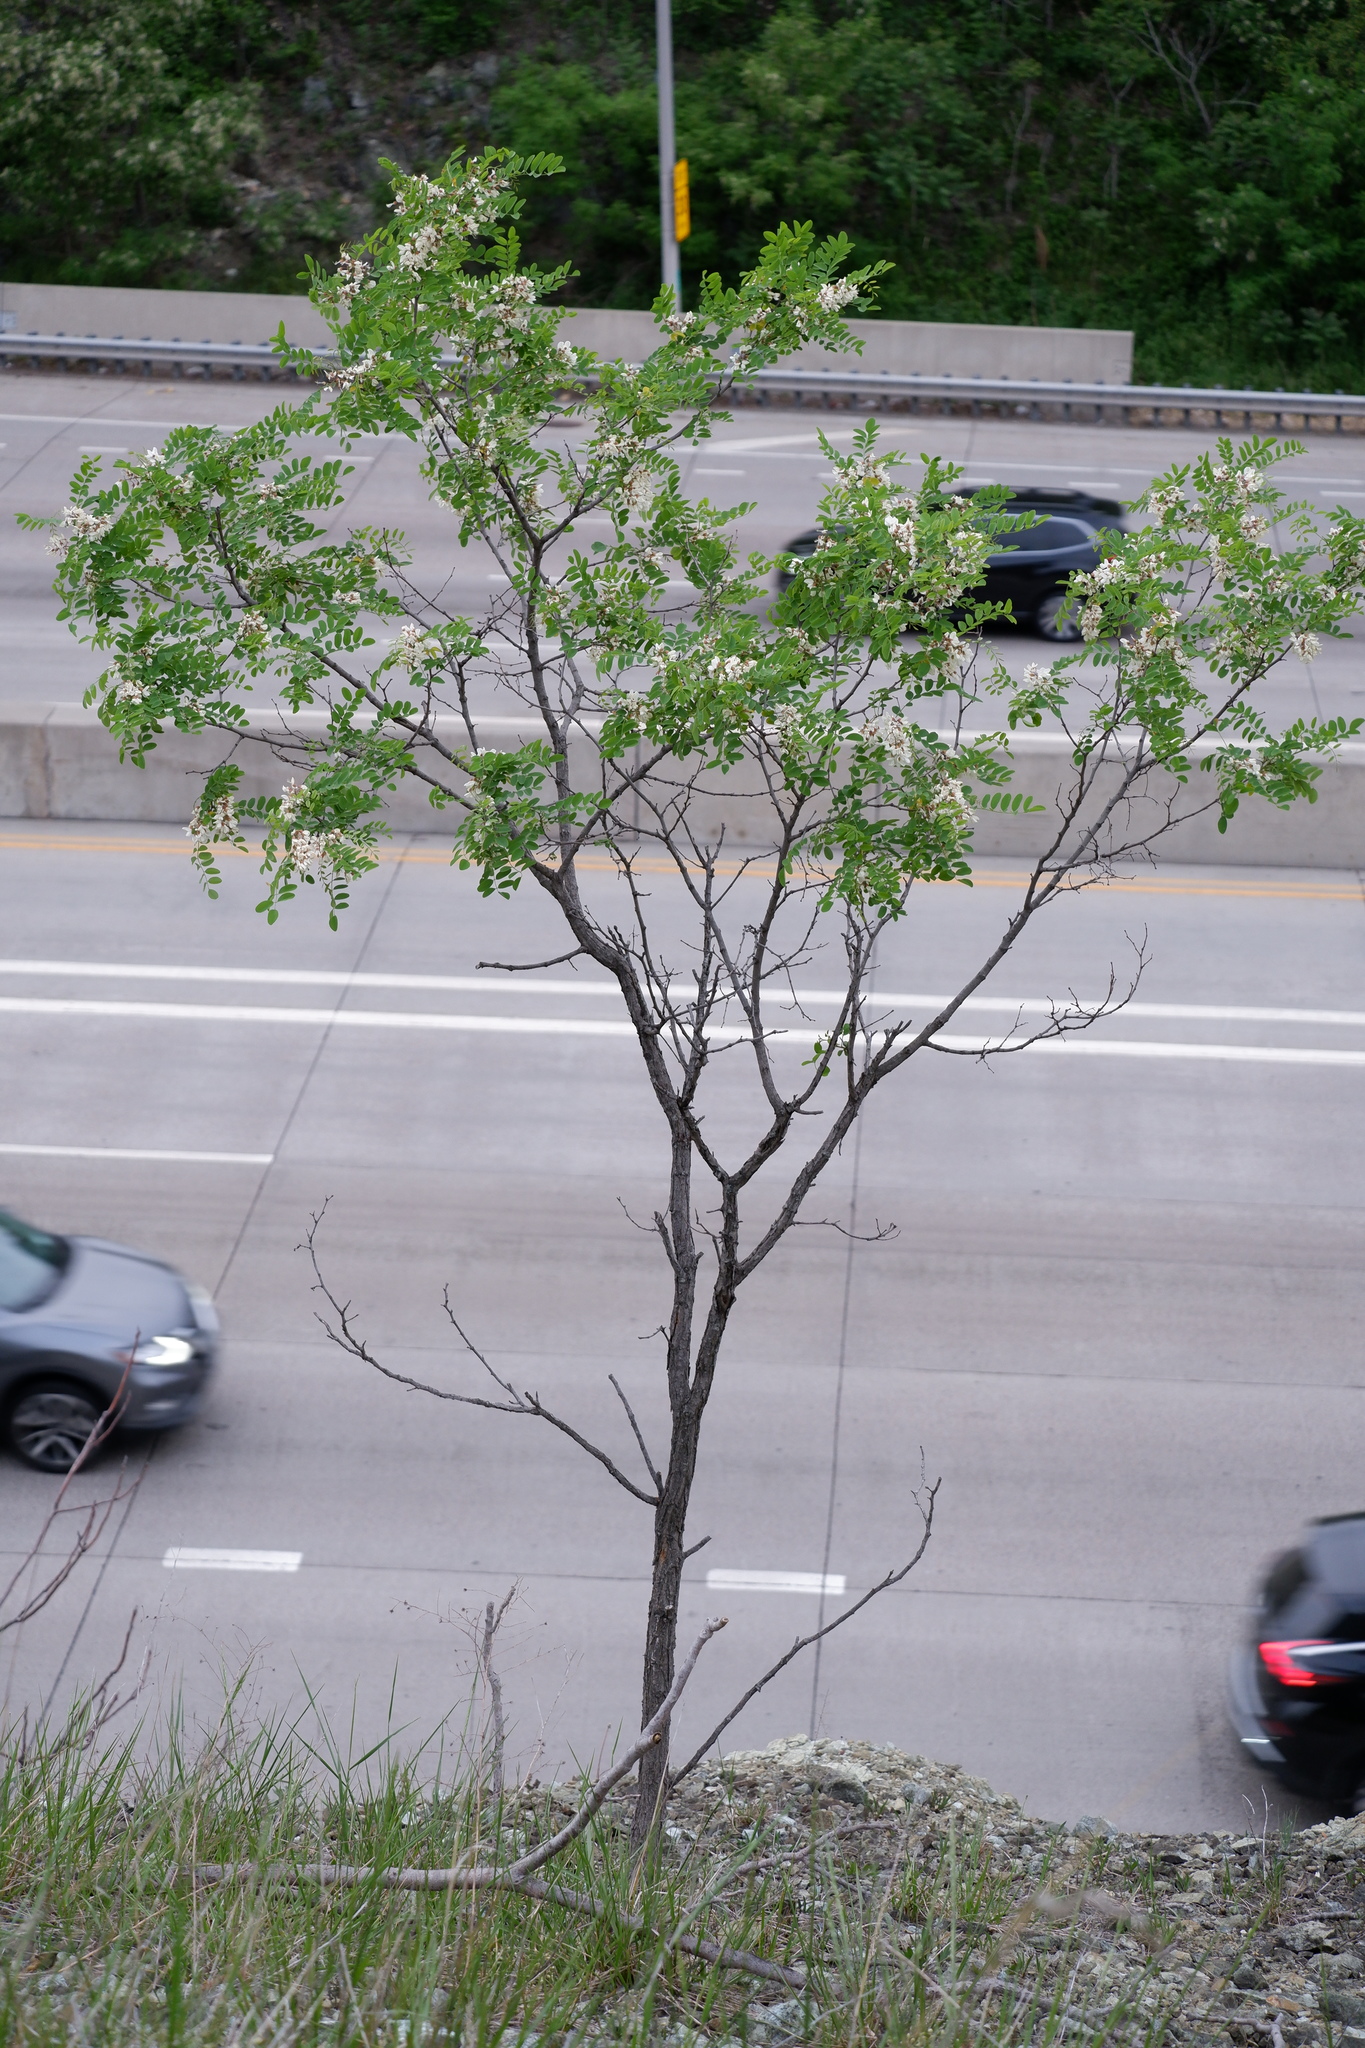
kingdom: Plantae
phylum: Tracheophyta
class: Magnoliopsida
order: Fabales
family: Fabaceae
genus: Robinia
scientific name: Robinia pseudoacacia
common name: Black locust
